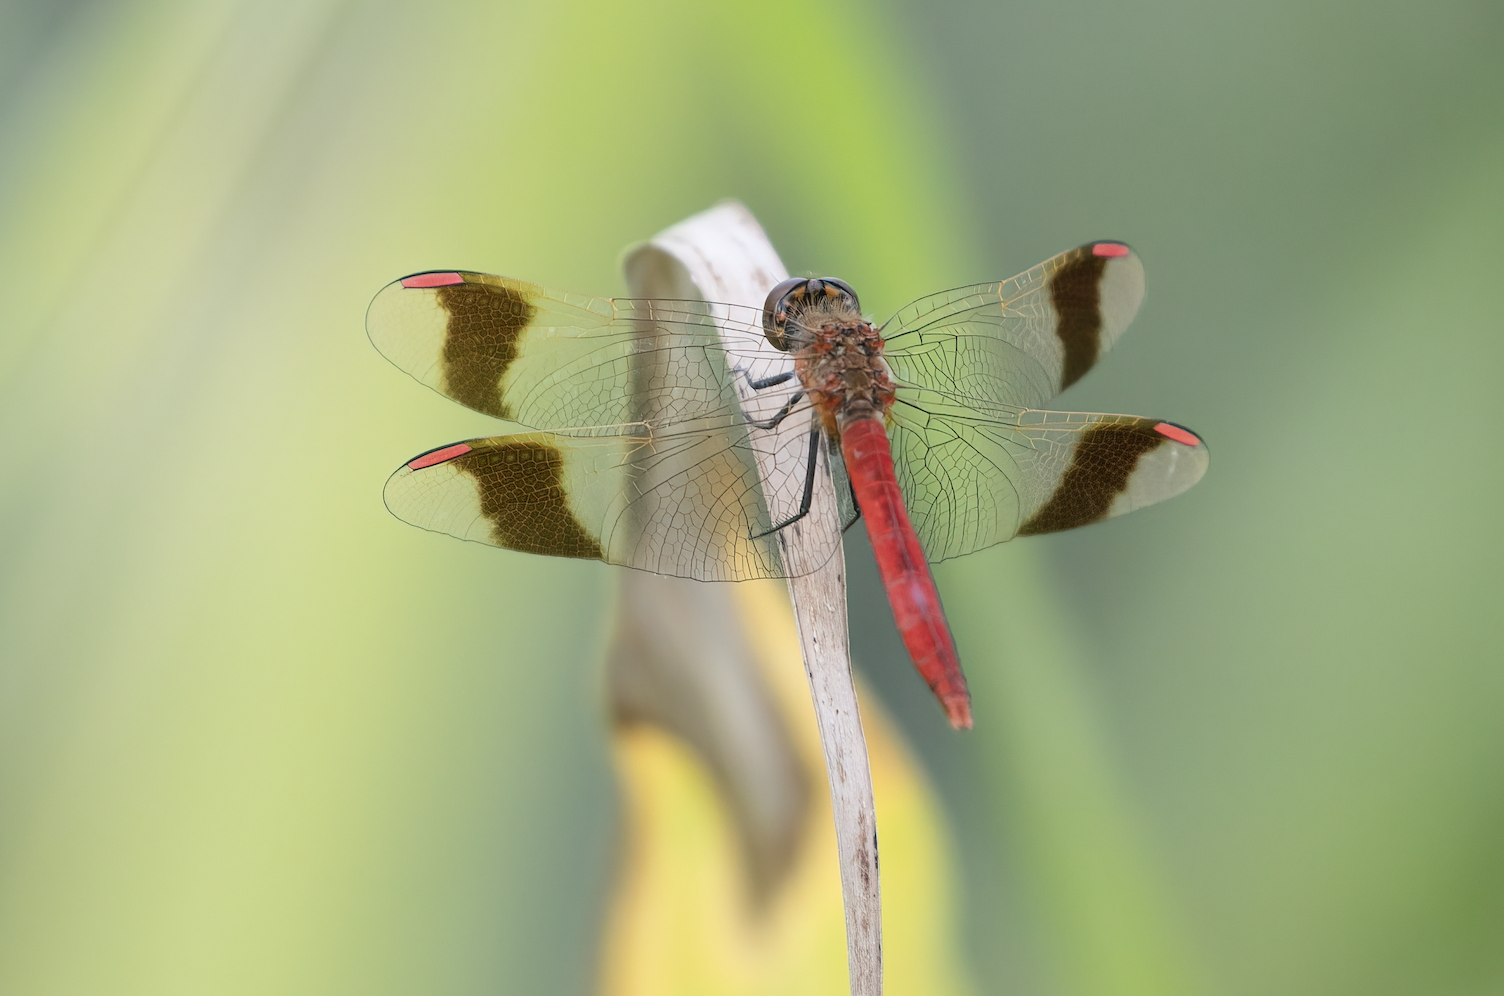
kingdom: Animalia
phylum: Arthropoda
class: Insecta
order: Odonata
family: Libellulidae
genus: Sympetrum
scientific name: Sympetrum pedemontanum
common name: Banded darter
